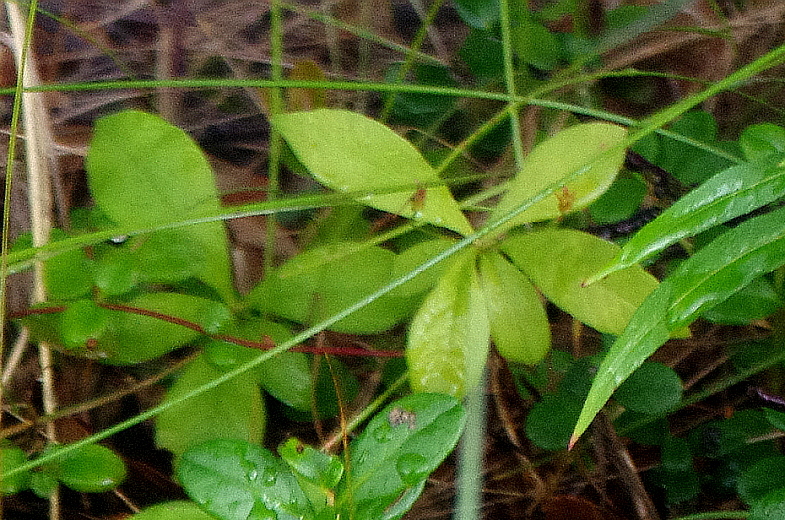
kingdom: Plantae
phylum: Tracheophyta
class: Magnoliopsida
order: Ericales
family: Primulaceae
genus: Lysimachia
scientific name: Lysimachia europaea
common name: Arctic starflower
